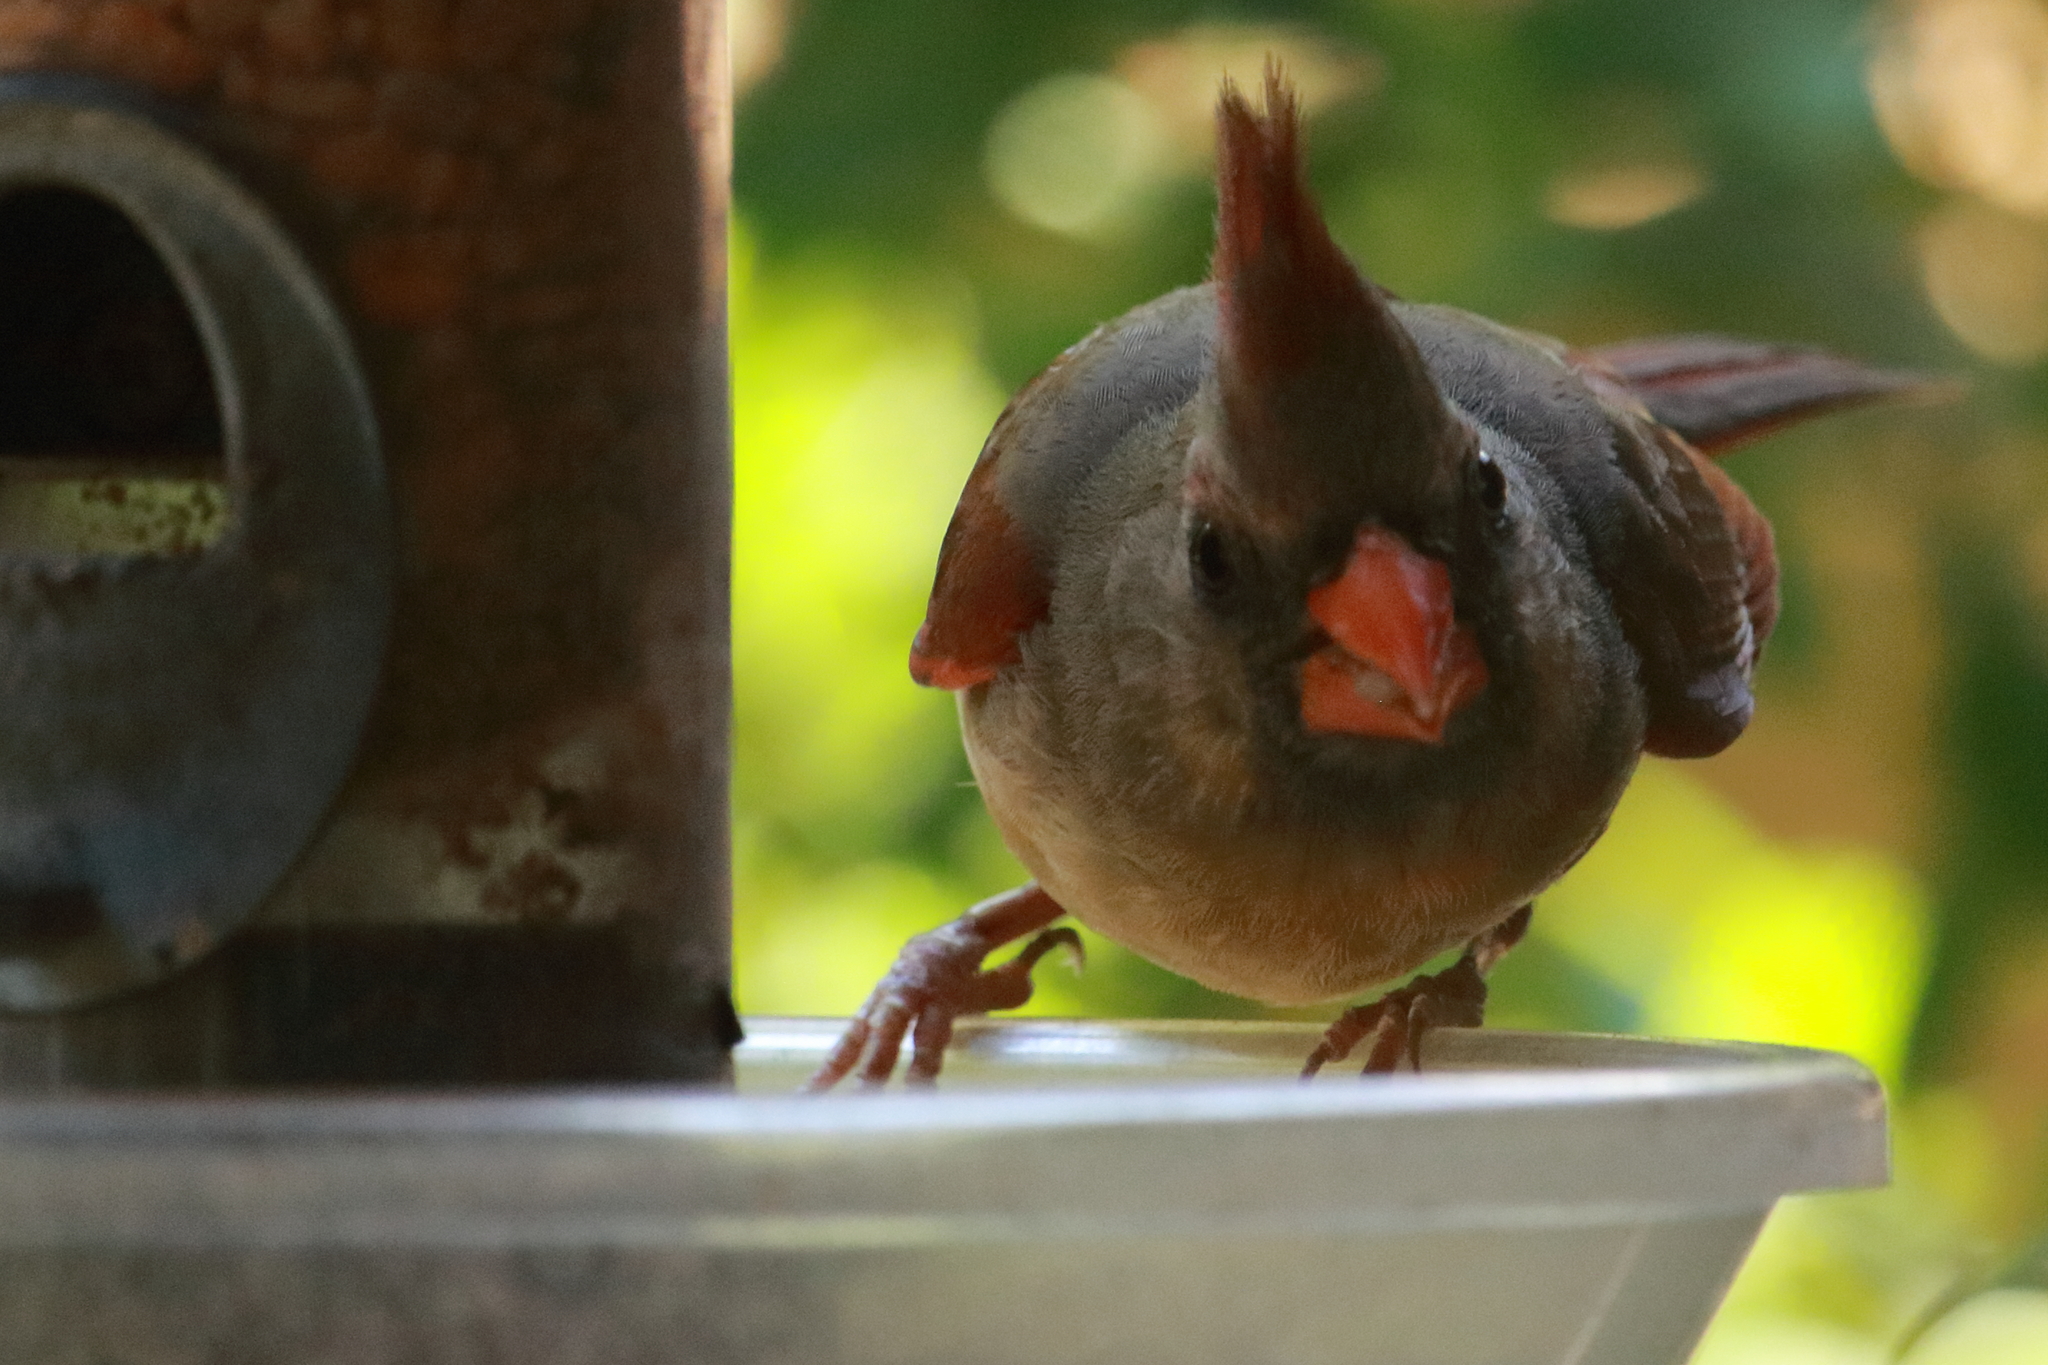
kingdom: Animalia
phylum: Chordata
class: Aves
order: Passeriformes
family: Cardinalidae
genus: Cardinalis
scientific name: Cardinalis cardinalis
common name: Northern cardinal
